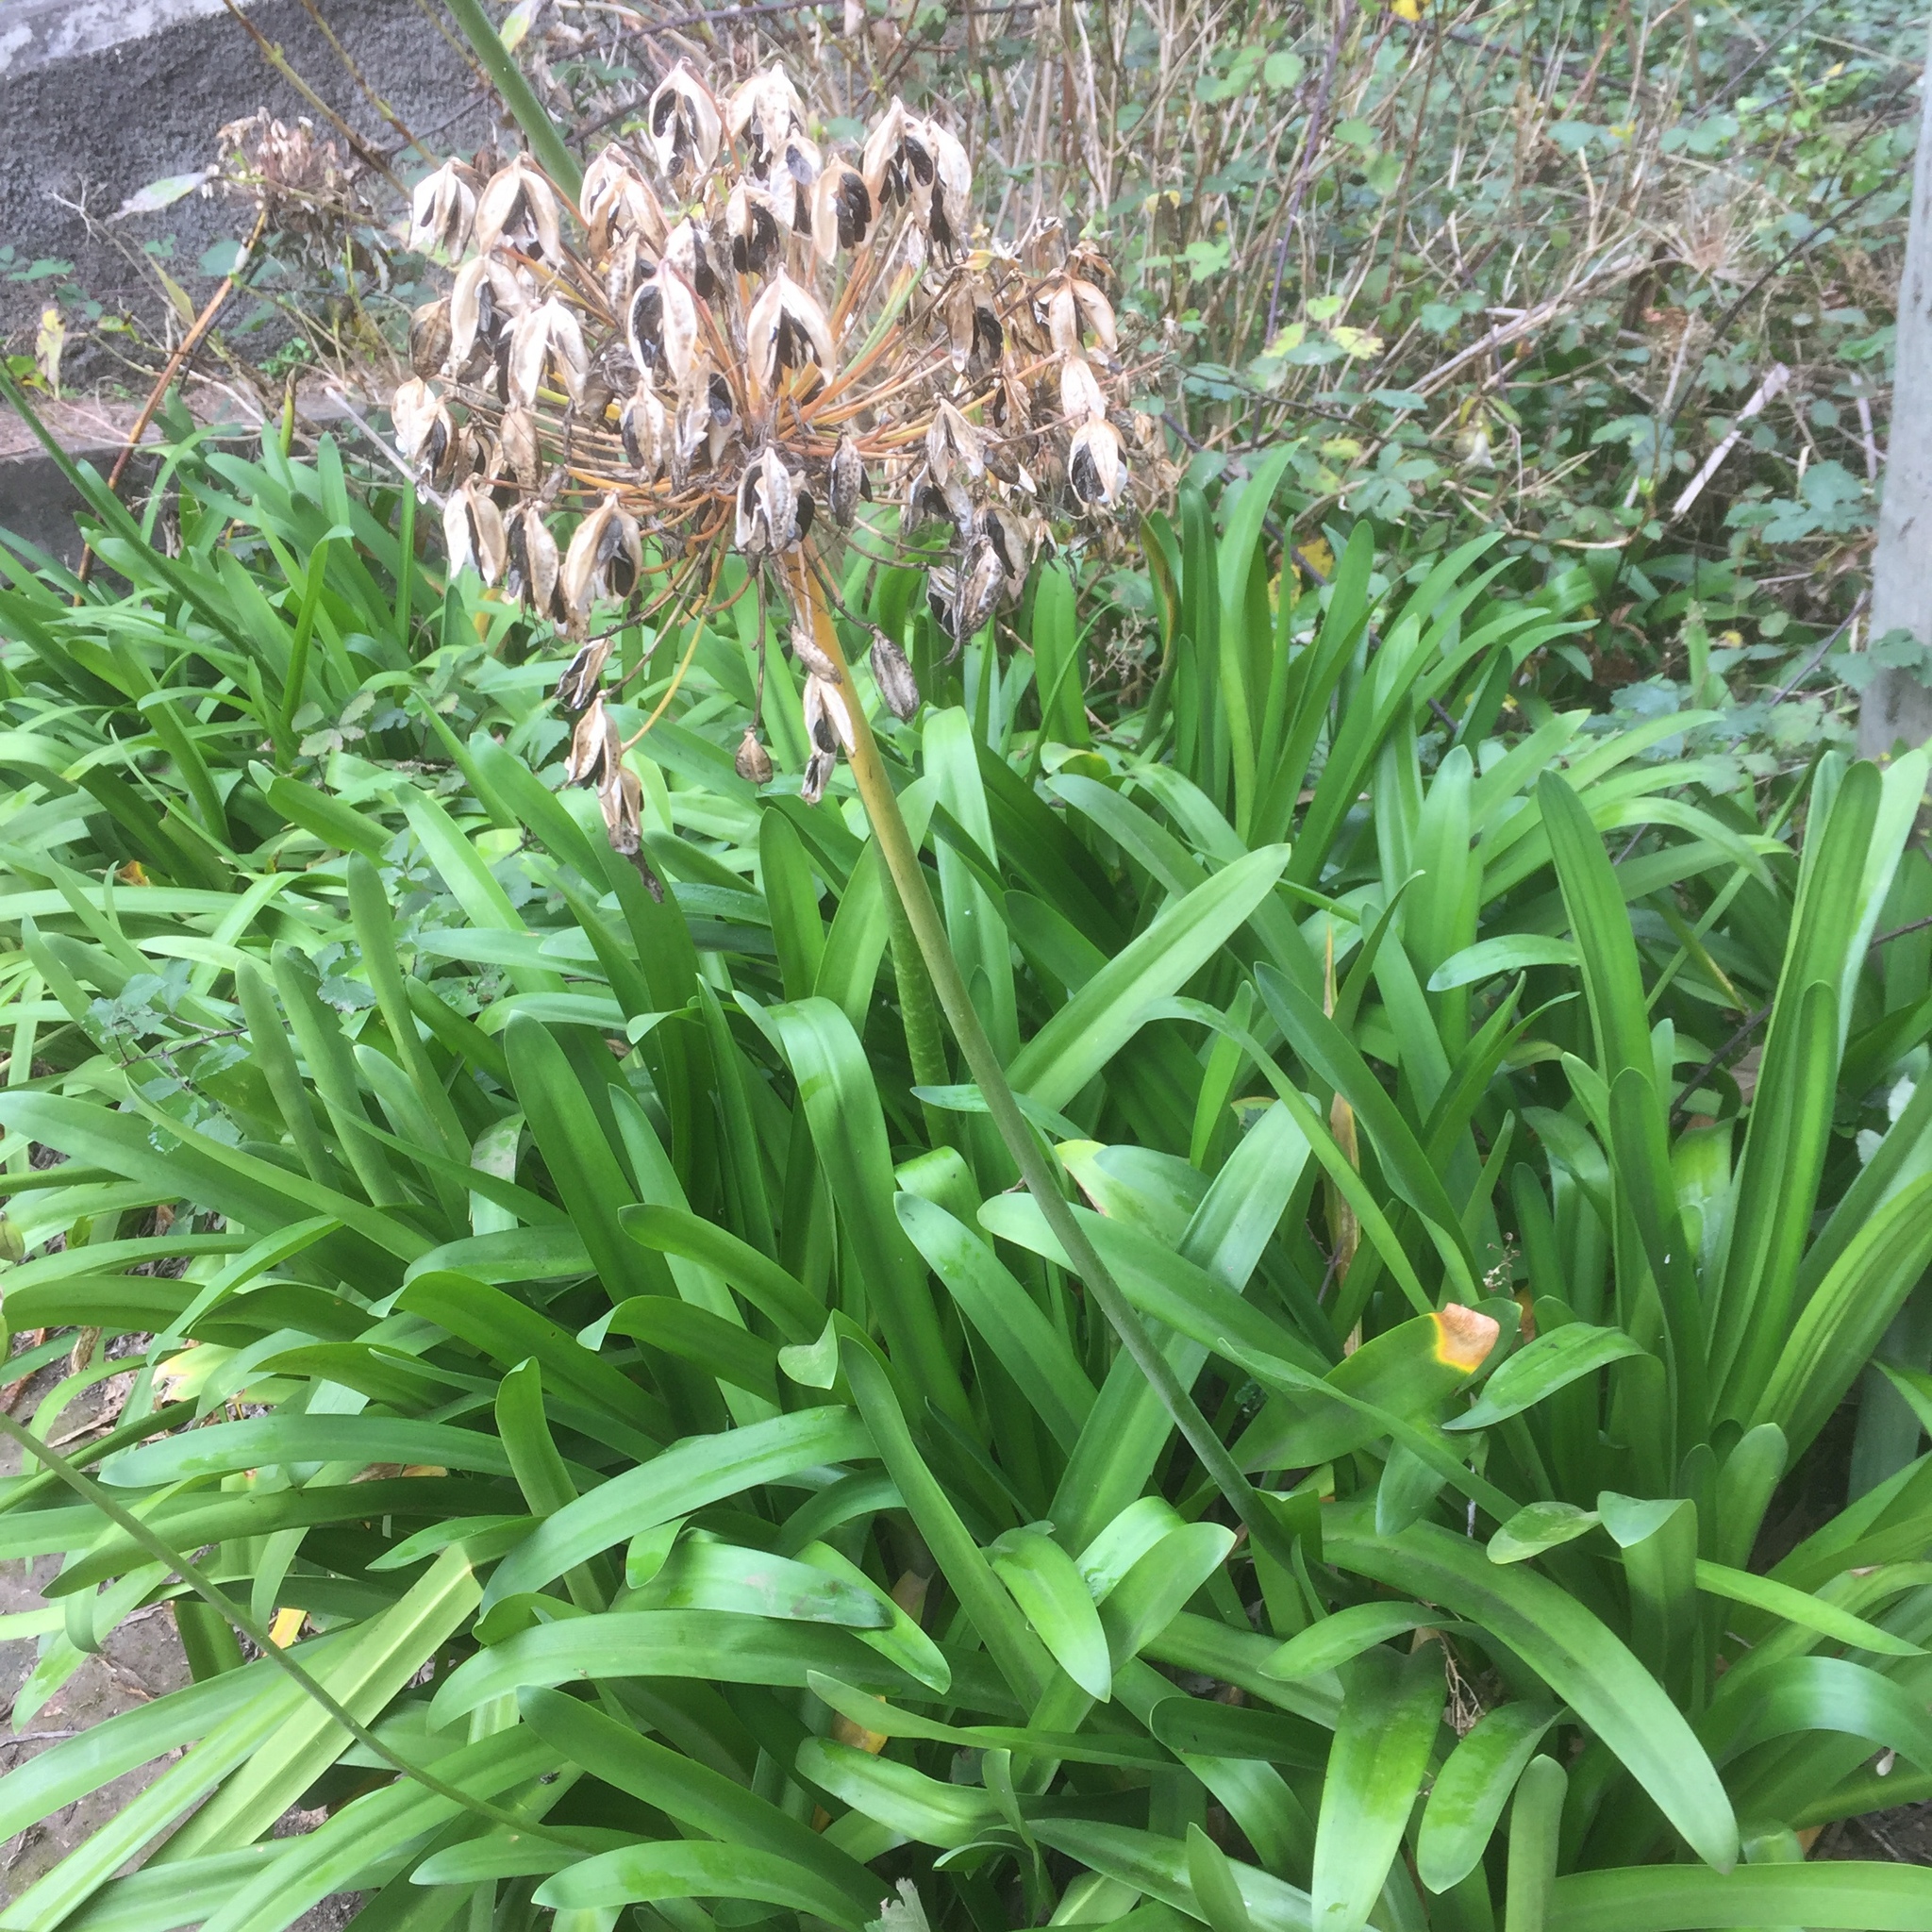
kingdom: Plantae
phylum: Tracheophyta
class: Liliopsida
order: Asparagales
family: Amaryllidaceae
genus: Agapanthus
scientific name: Agapanthus praecox
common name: African-lily
